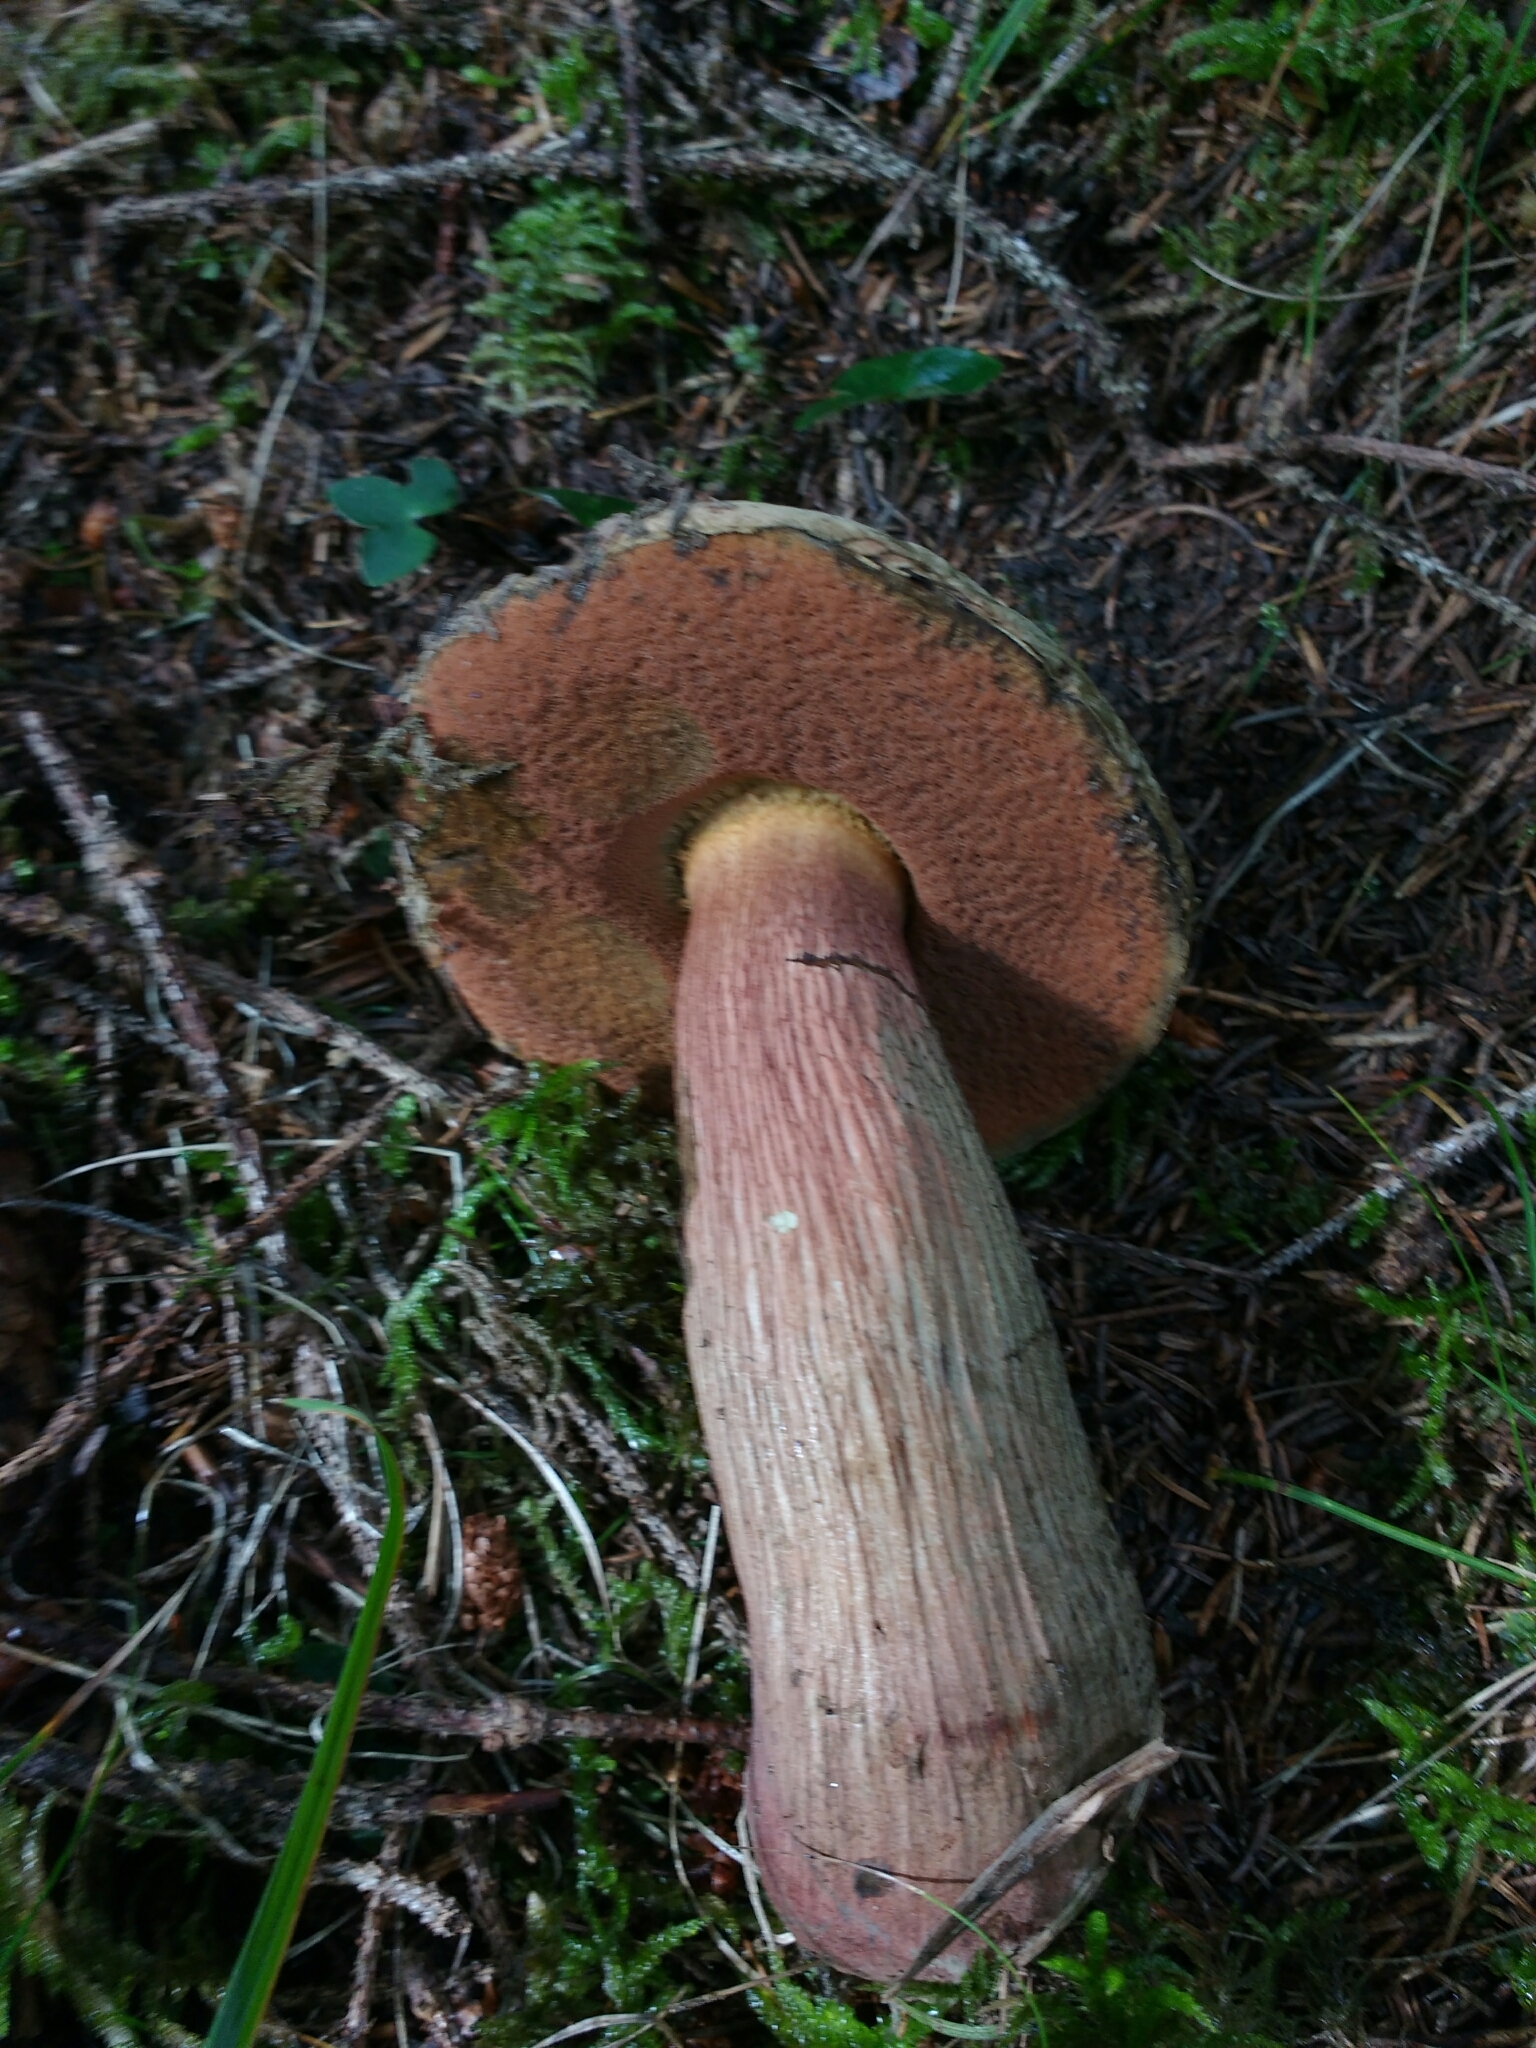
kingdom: Fungi
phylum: Basidiomycota
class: Agaricomycetes
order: Boletales
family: Boletaceae
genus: Suillellus
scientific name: Suillellus luridus
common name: Lurid bolete
